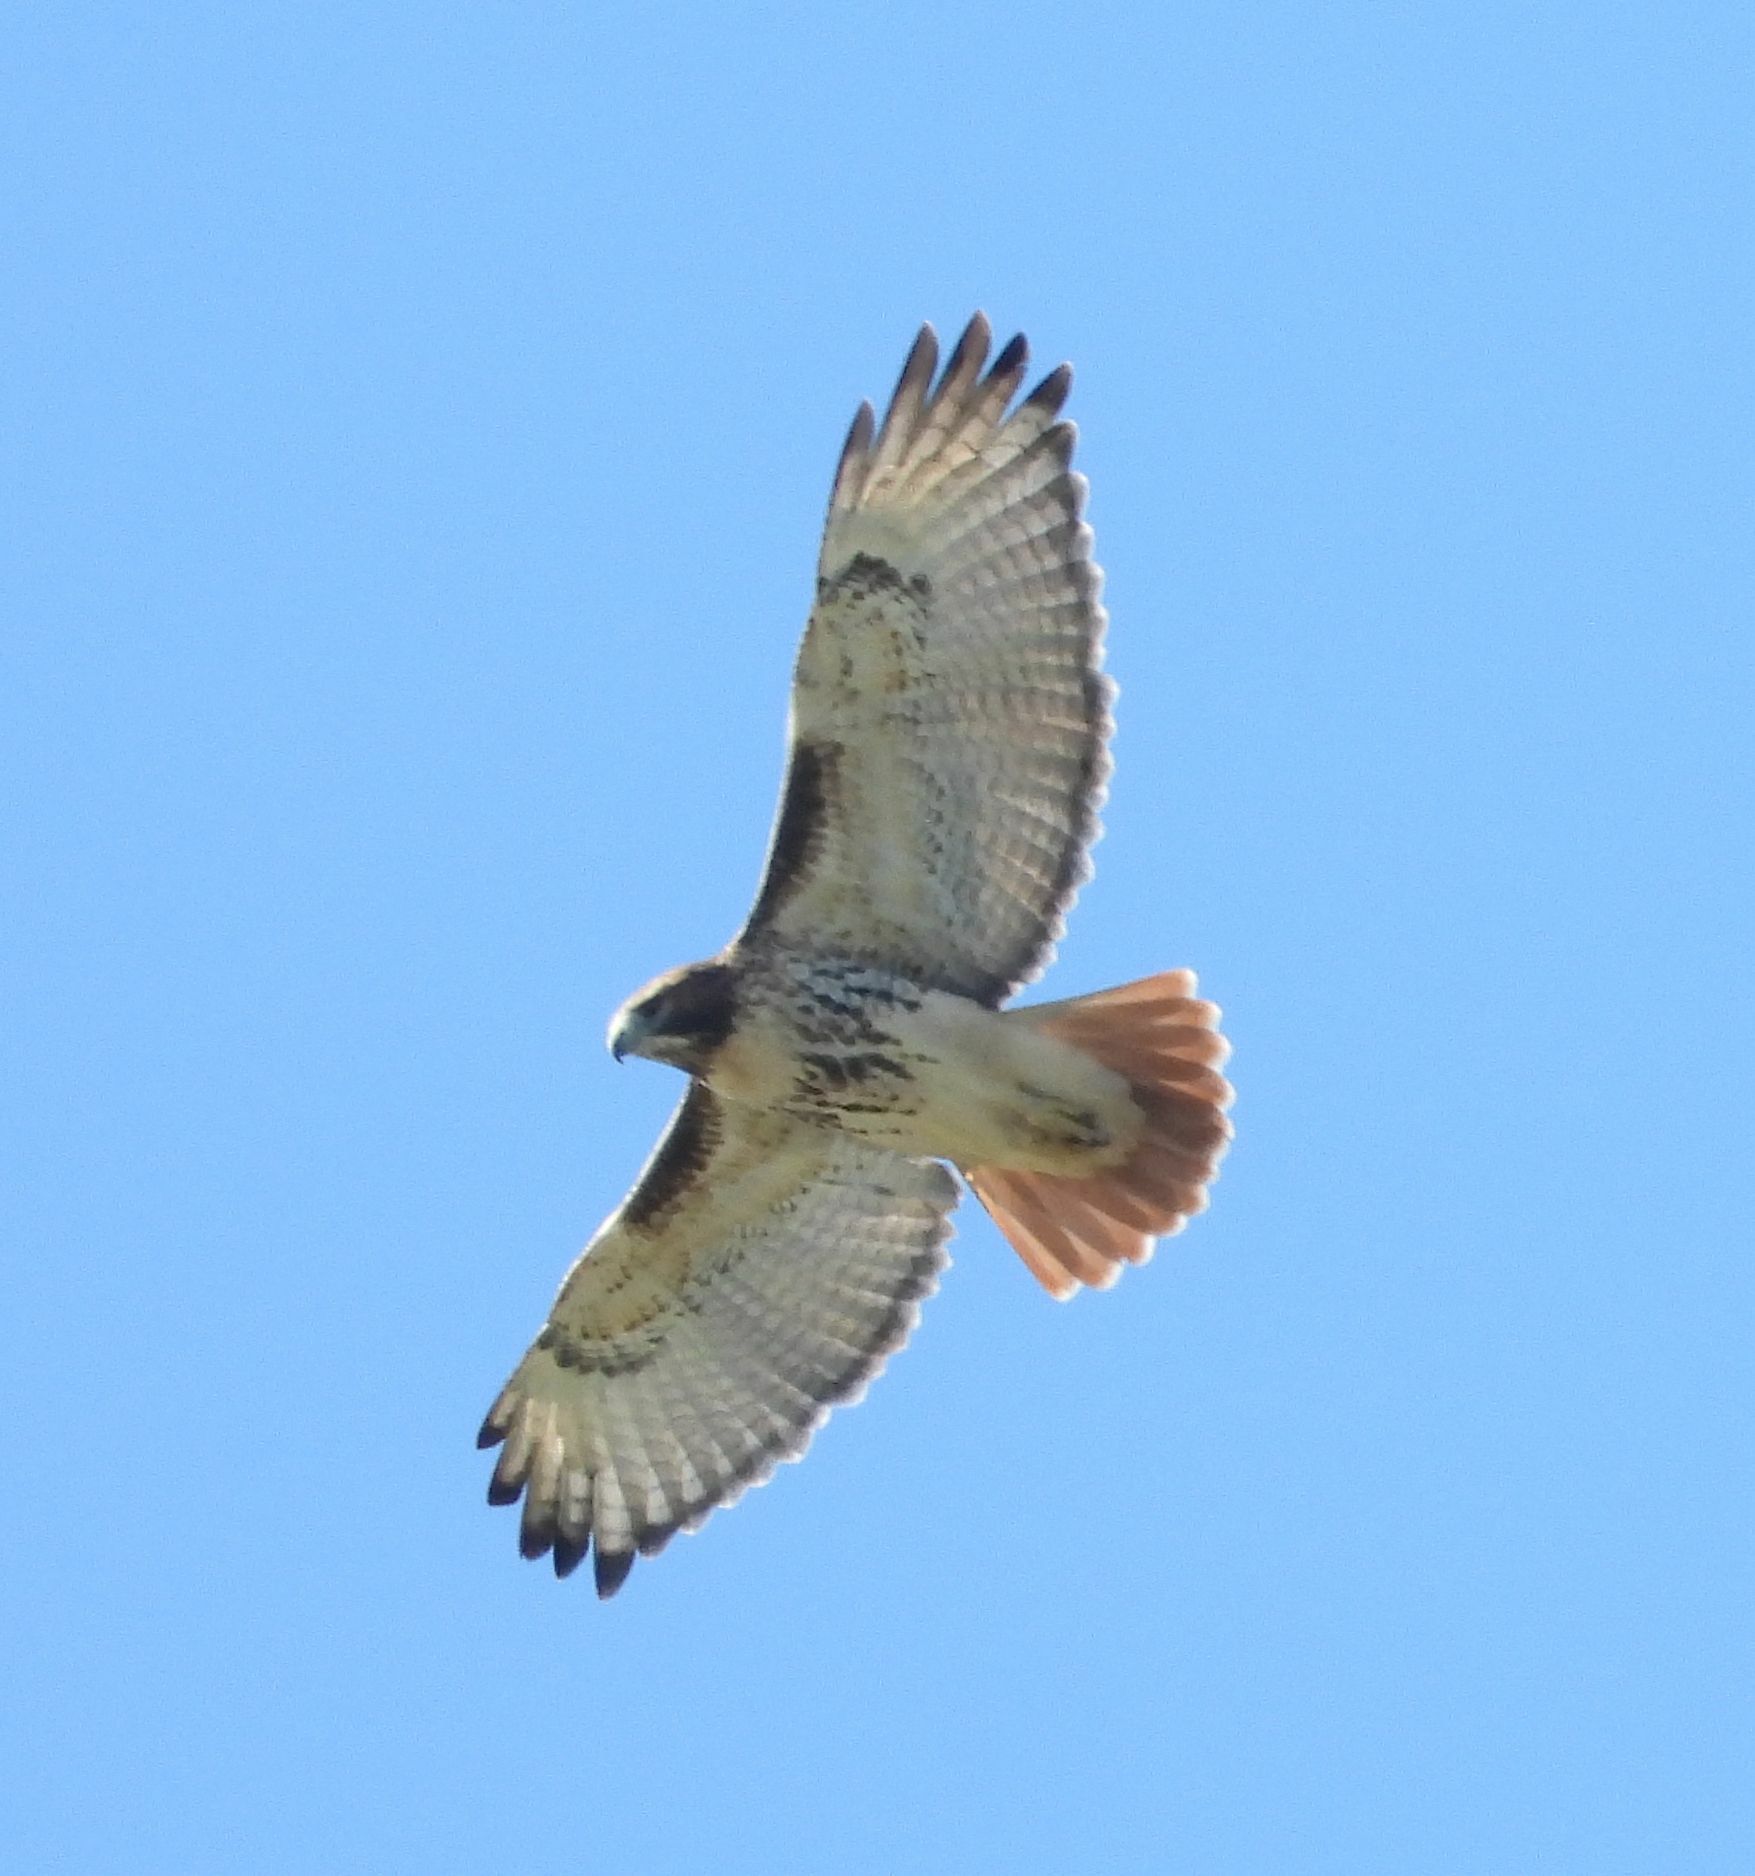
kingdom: Animalia
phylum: Chordata
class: Aves
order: Accipitriformes
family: Accipitridae
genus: Buteo
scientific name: Buteo jamaicensis
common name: Red-tailed hawk
